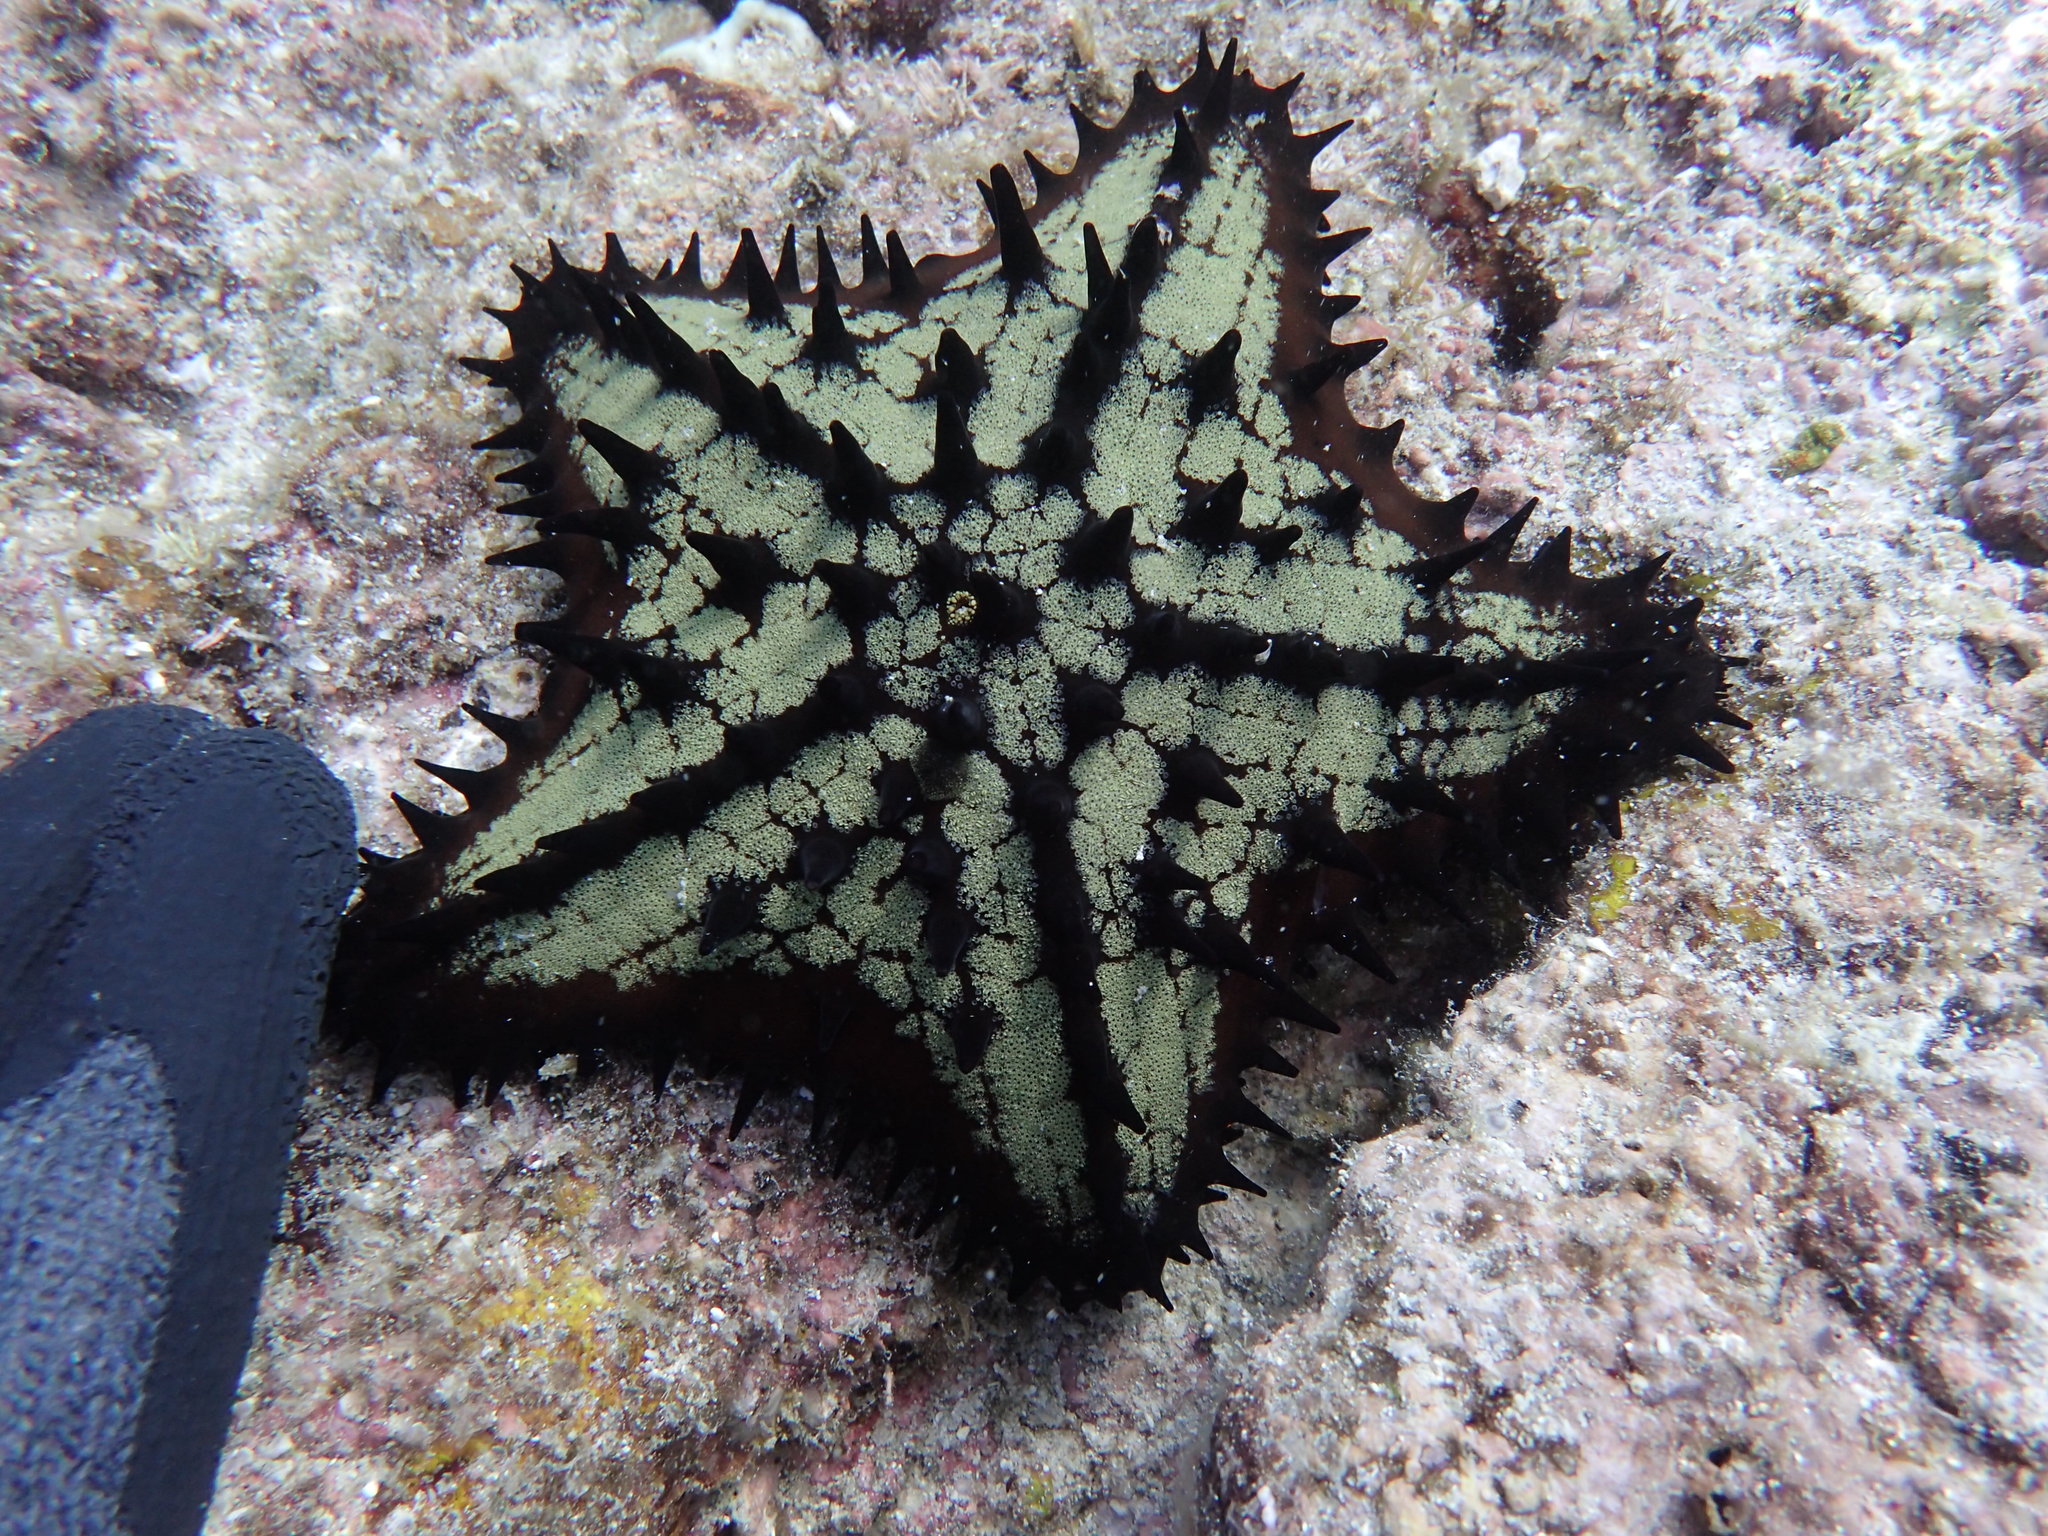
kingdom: Animalia
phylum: Echinodermata
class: Asteroidea
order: Valvatida
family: Oreasteridae
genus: Nidorellia
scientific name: Nidorellia armata
